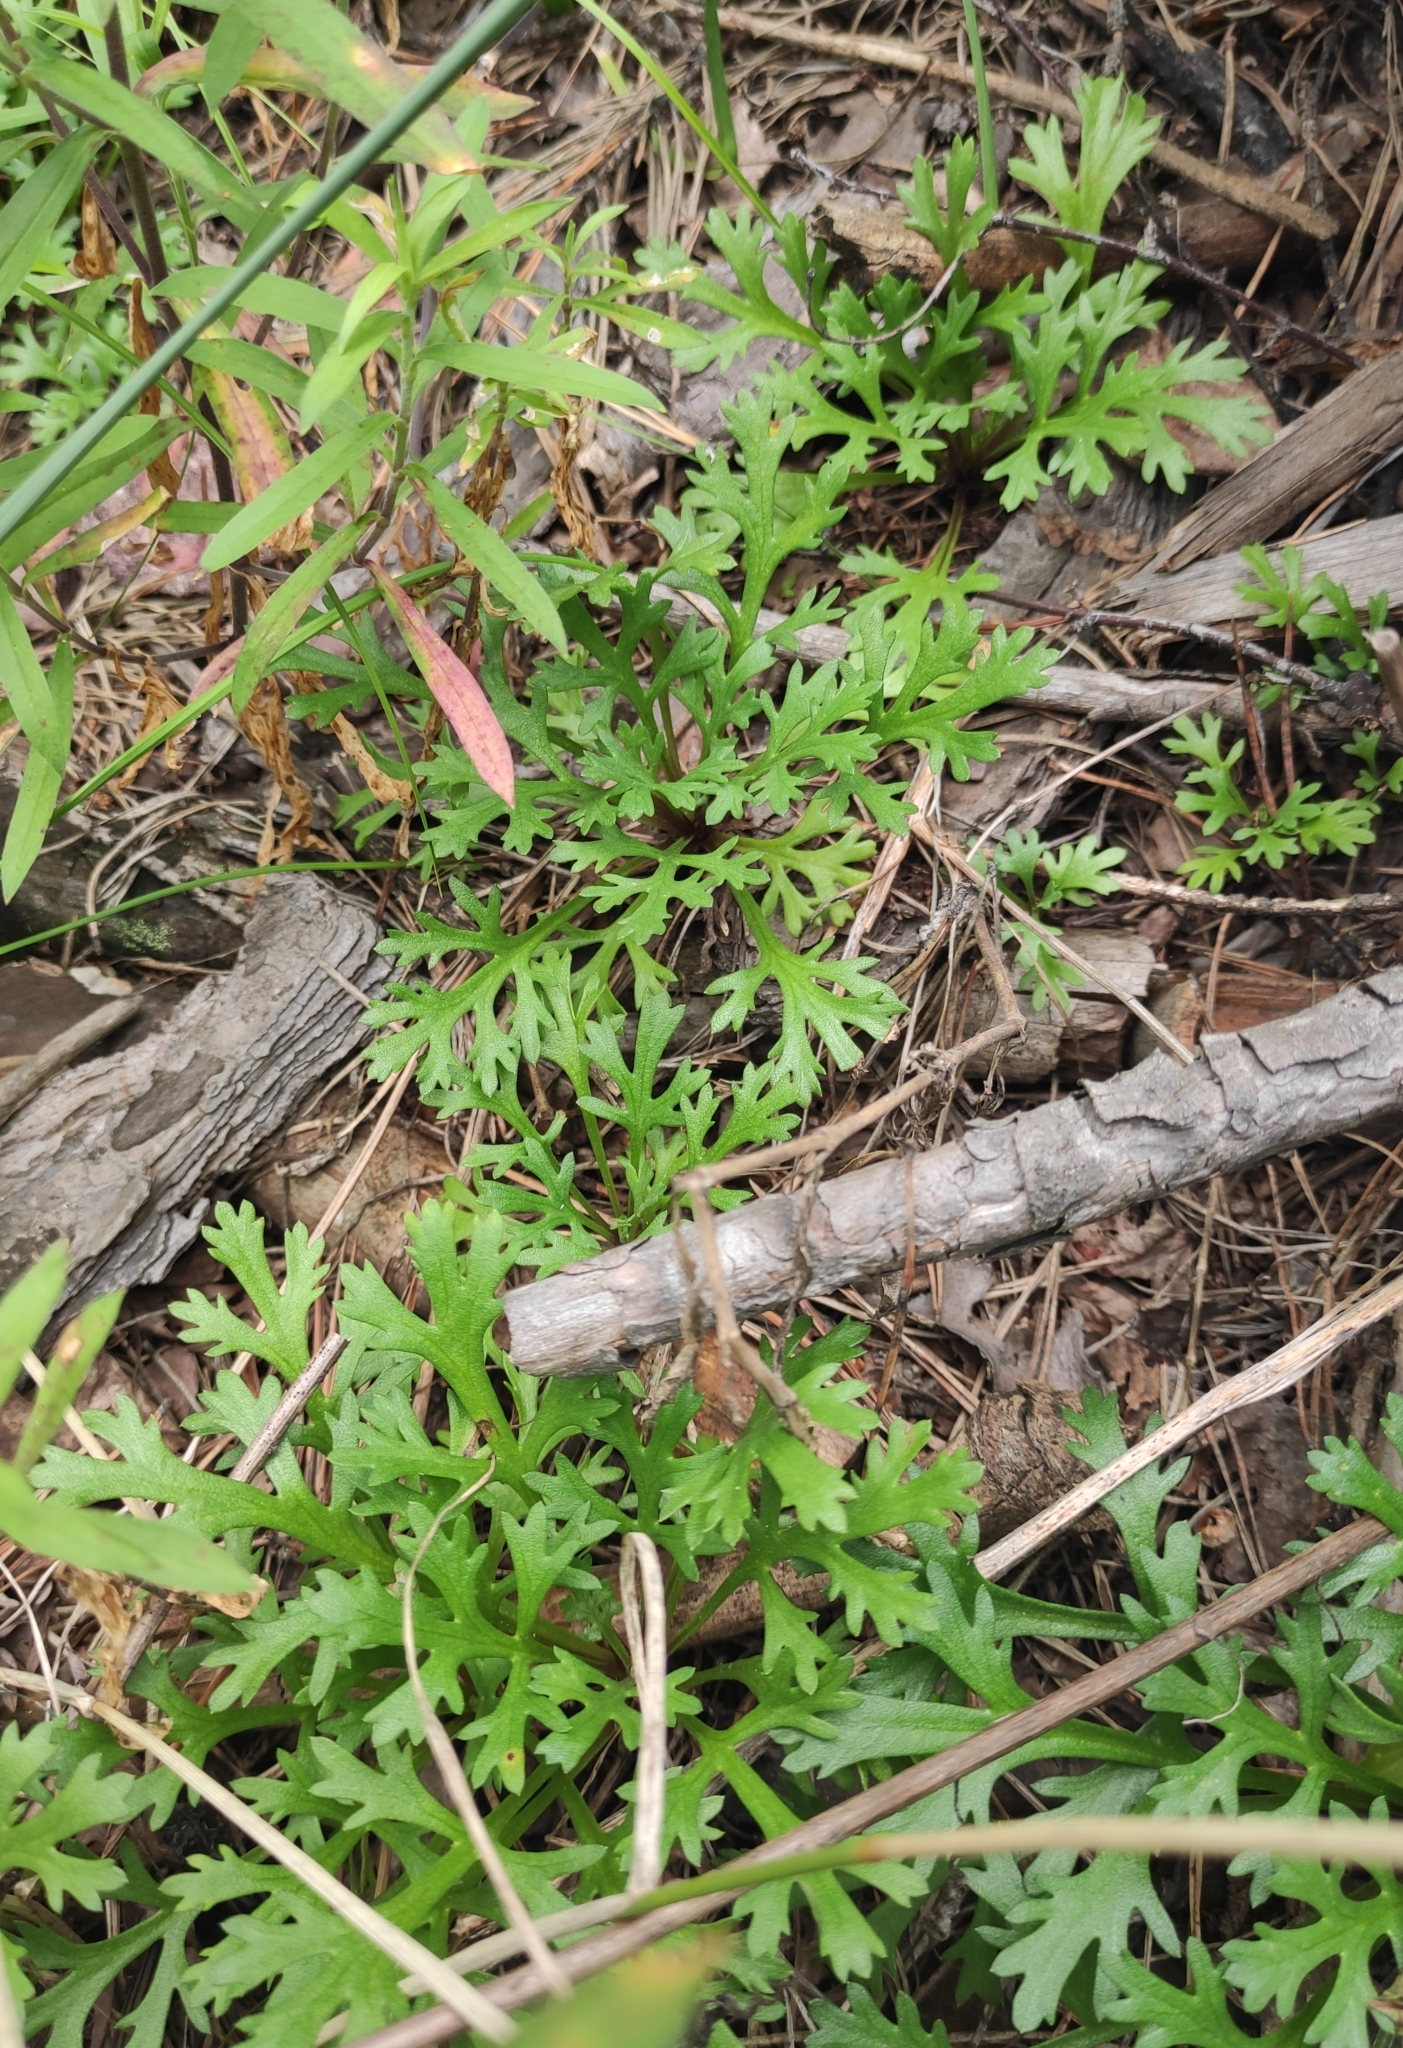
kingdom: Plantae
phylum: Tracheophyta
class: Magnoliopsida
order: Asterales
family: Asteraceae
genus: Chrysanthemum
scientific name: Chrysanthemum zawadzkii
